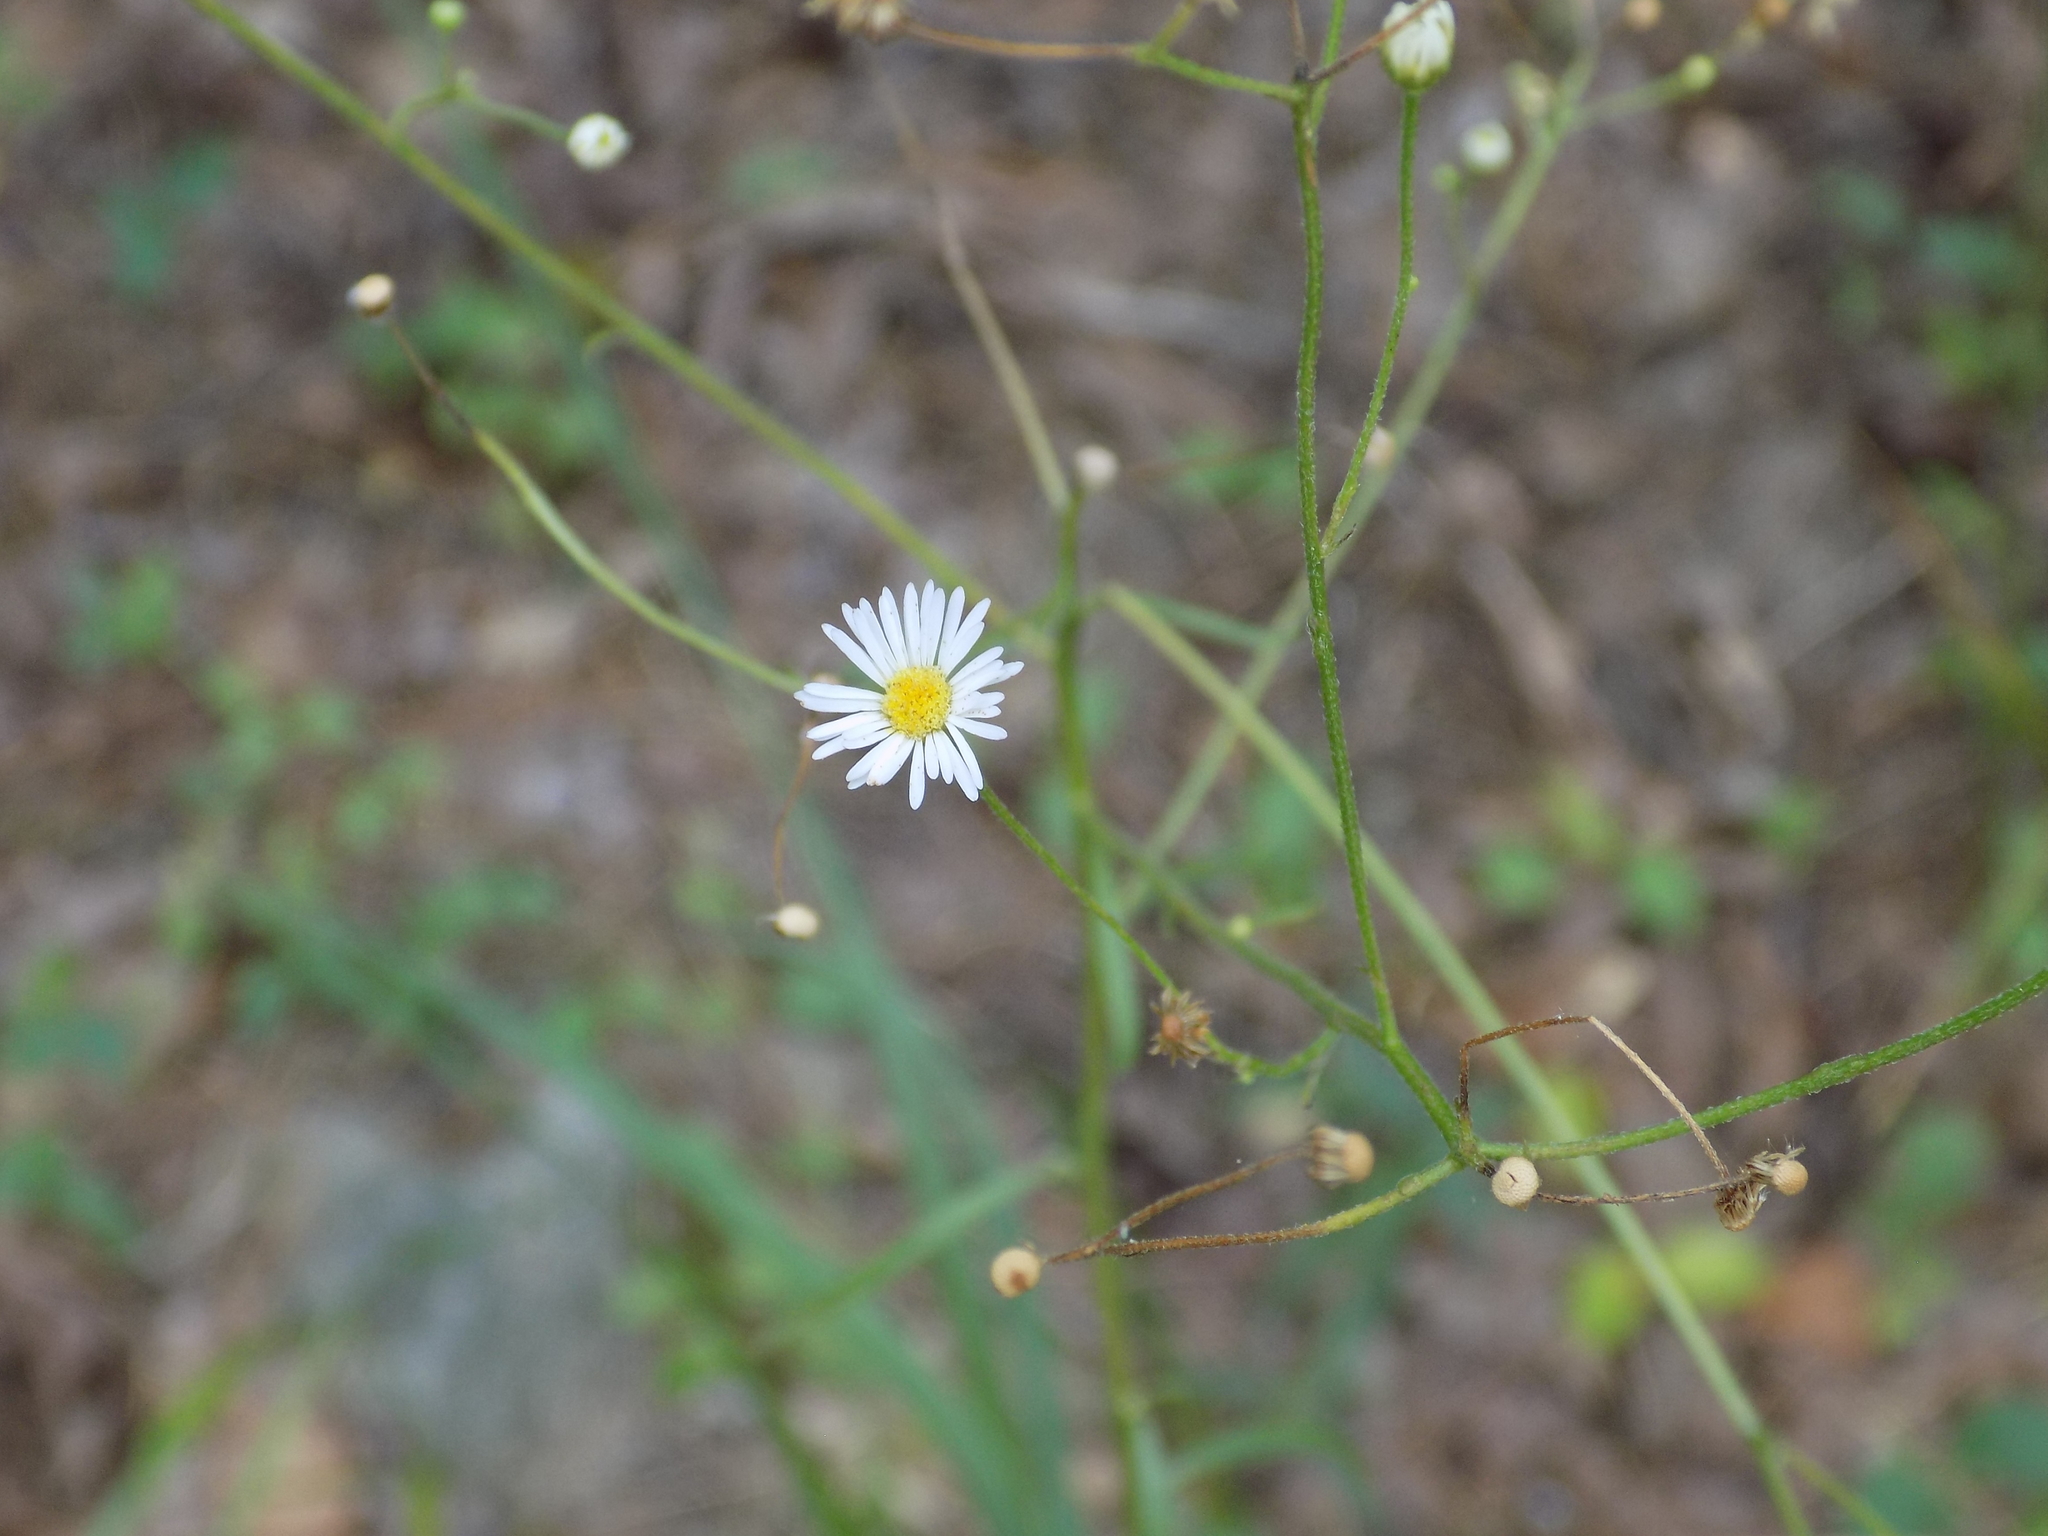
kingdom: Plantae
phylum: Tracheophyta
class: Magnoliopsida
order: Asterales
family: Asteraceae
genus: Boltonia
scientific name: Boltonia diffusa
